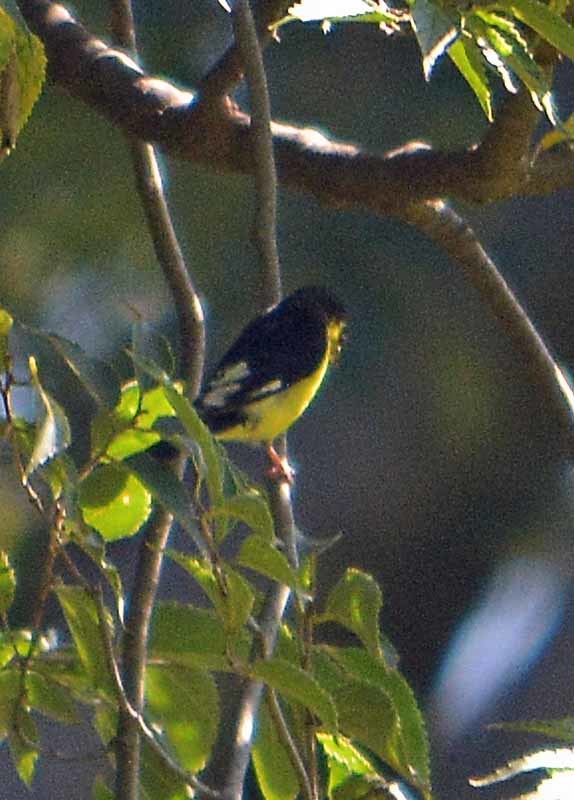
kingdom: Animalia
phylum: Chordata
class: Aves
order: Passeriformes
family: Fringillidae
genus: Spinus
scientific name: Spinus psaltria
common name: Lesser goldfinch
